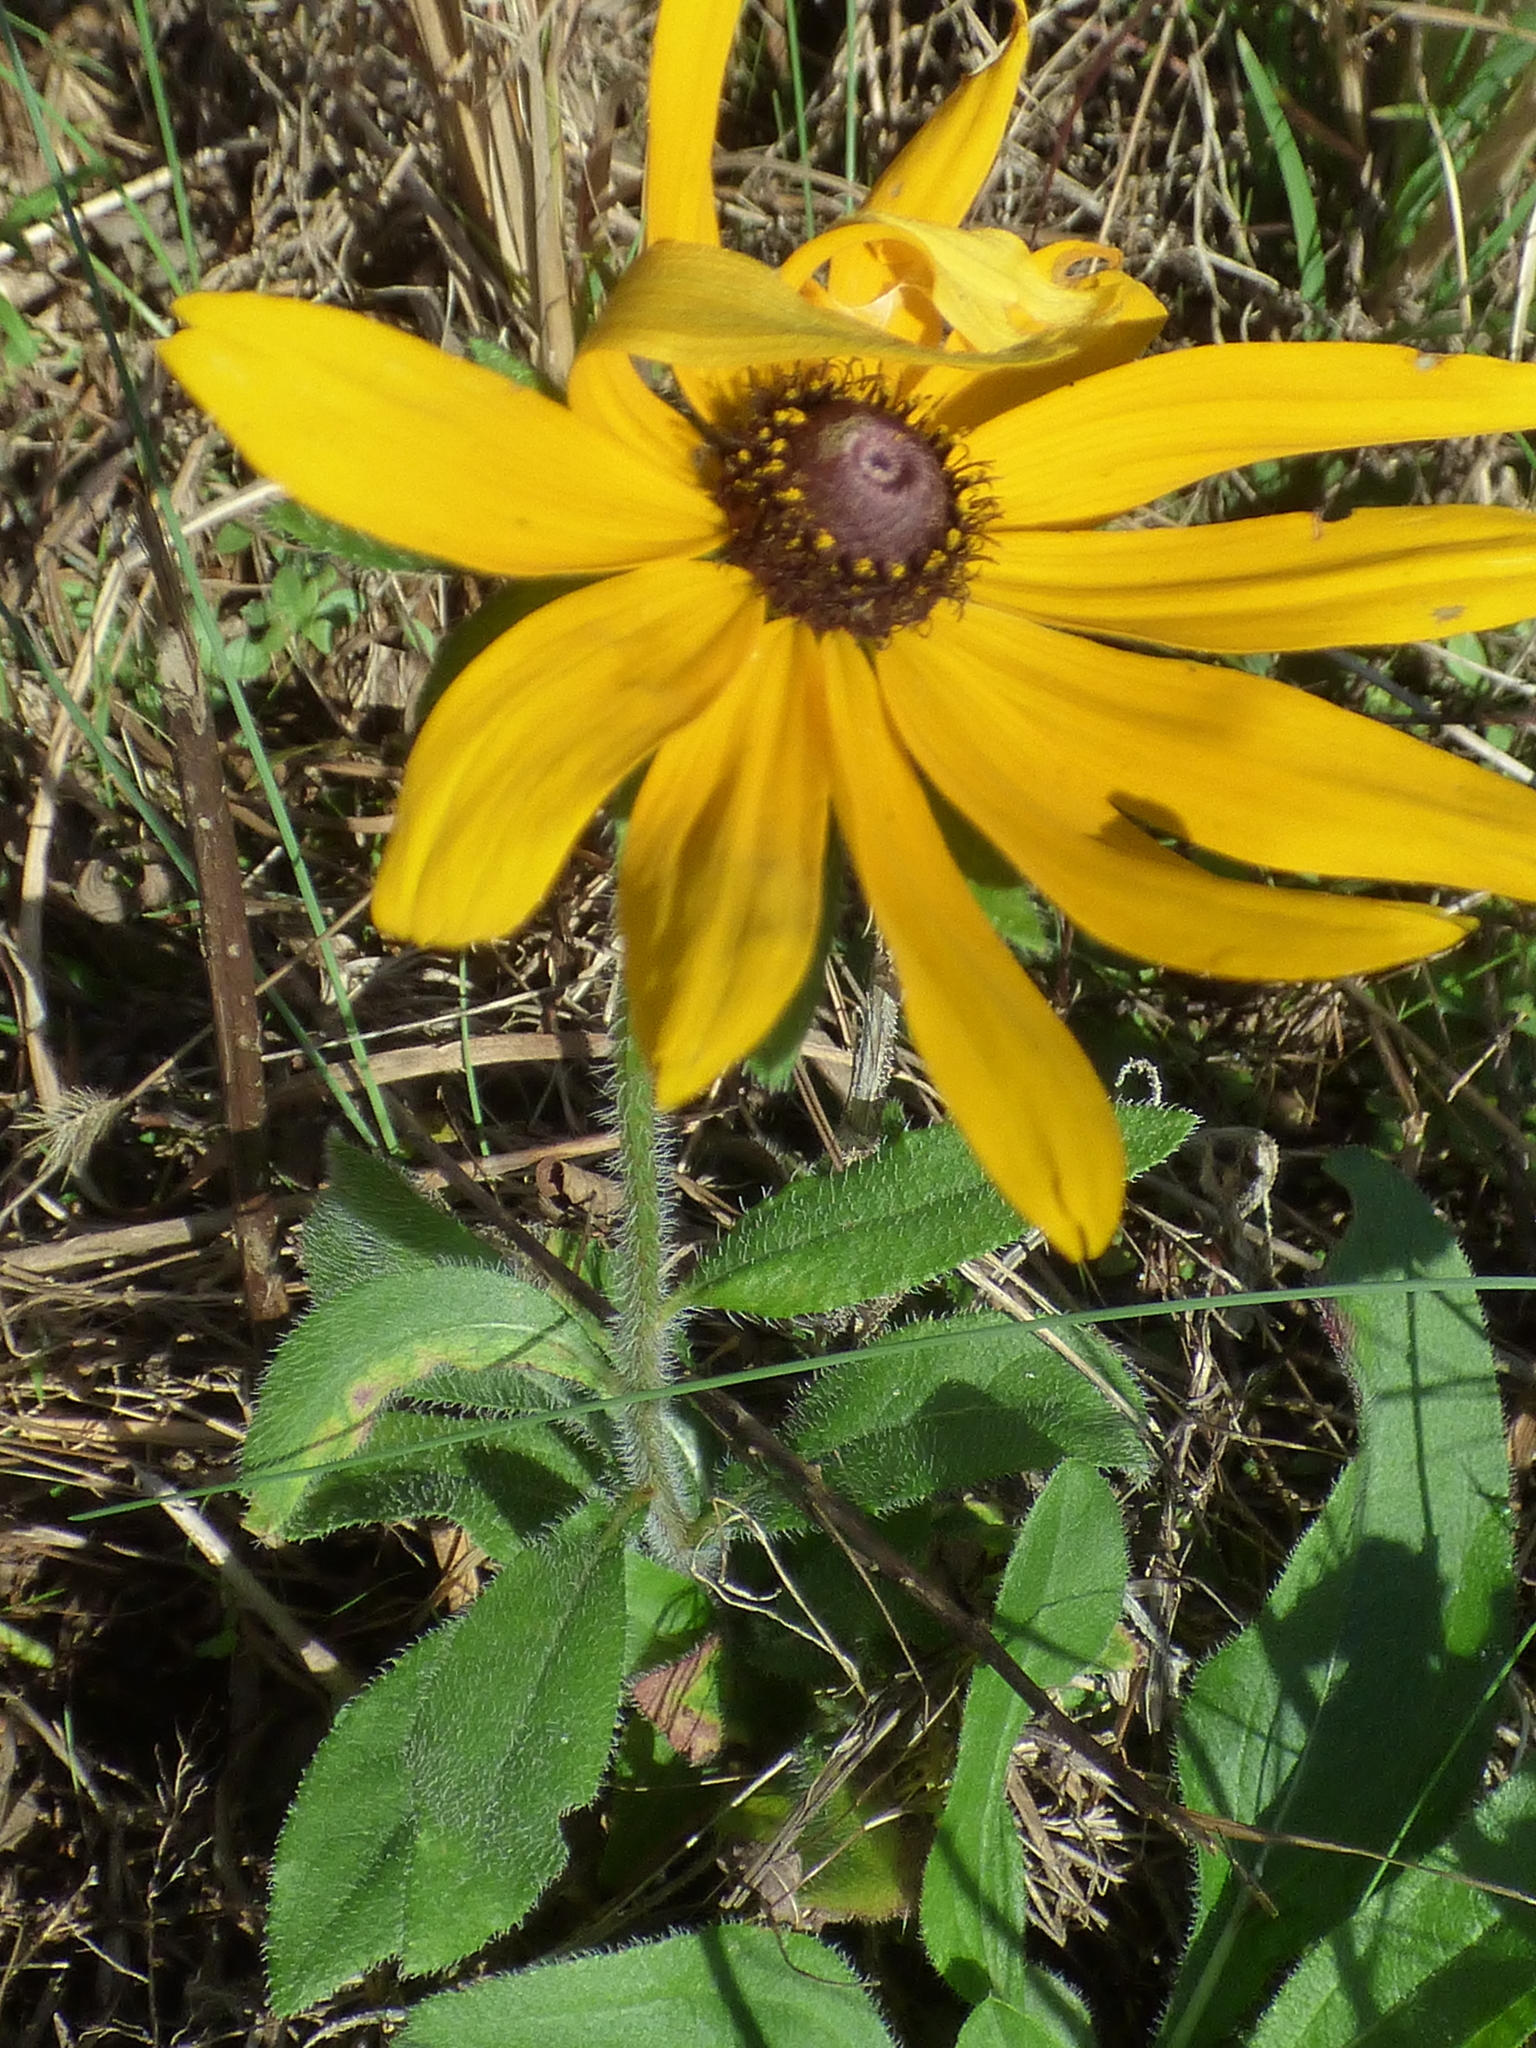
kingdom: Plantae
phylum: Tracheophyta
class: Magnoliopsida
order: Asterales
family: Asteraceae
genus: Rudbeckia
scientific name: Rudbeckia hirta
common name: Black-eyed-susan
